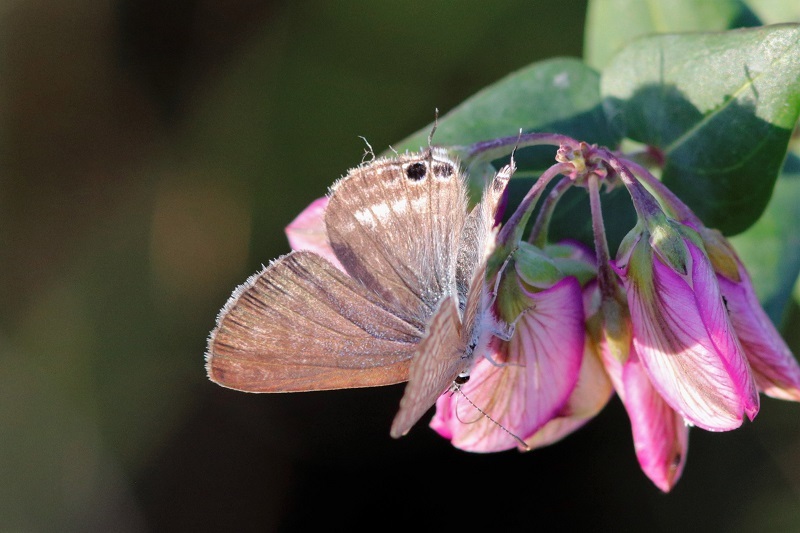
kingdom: Animalia
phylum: Arthropoda
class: Insecta
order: Lepidoptera
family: Lycaenidae
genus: Lampides
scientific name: Lampides boeticus
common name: Long-tailed blue
